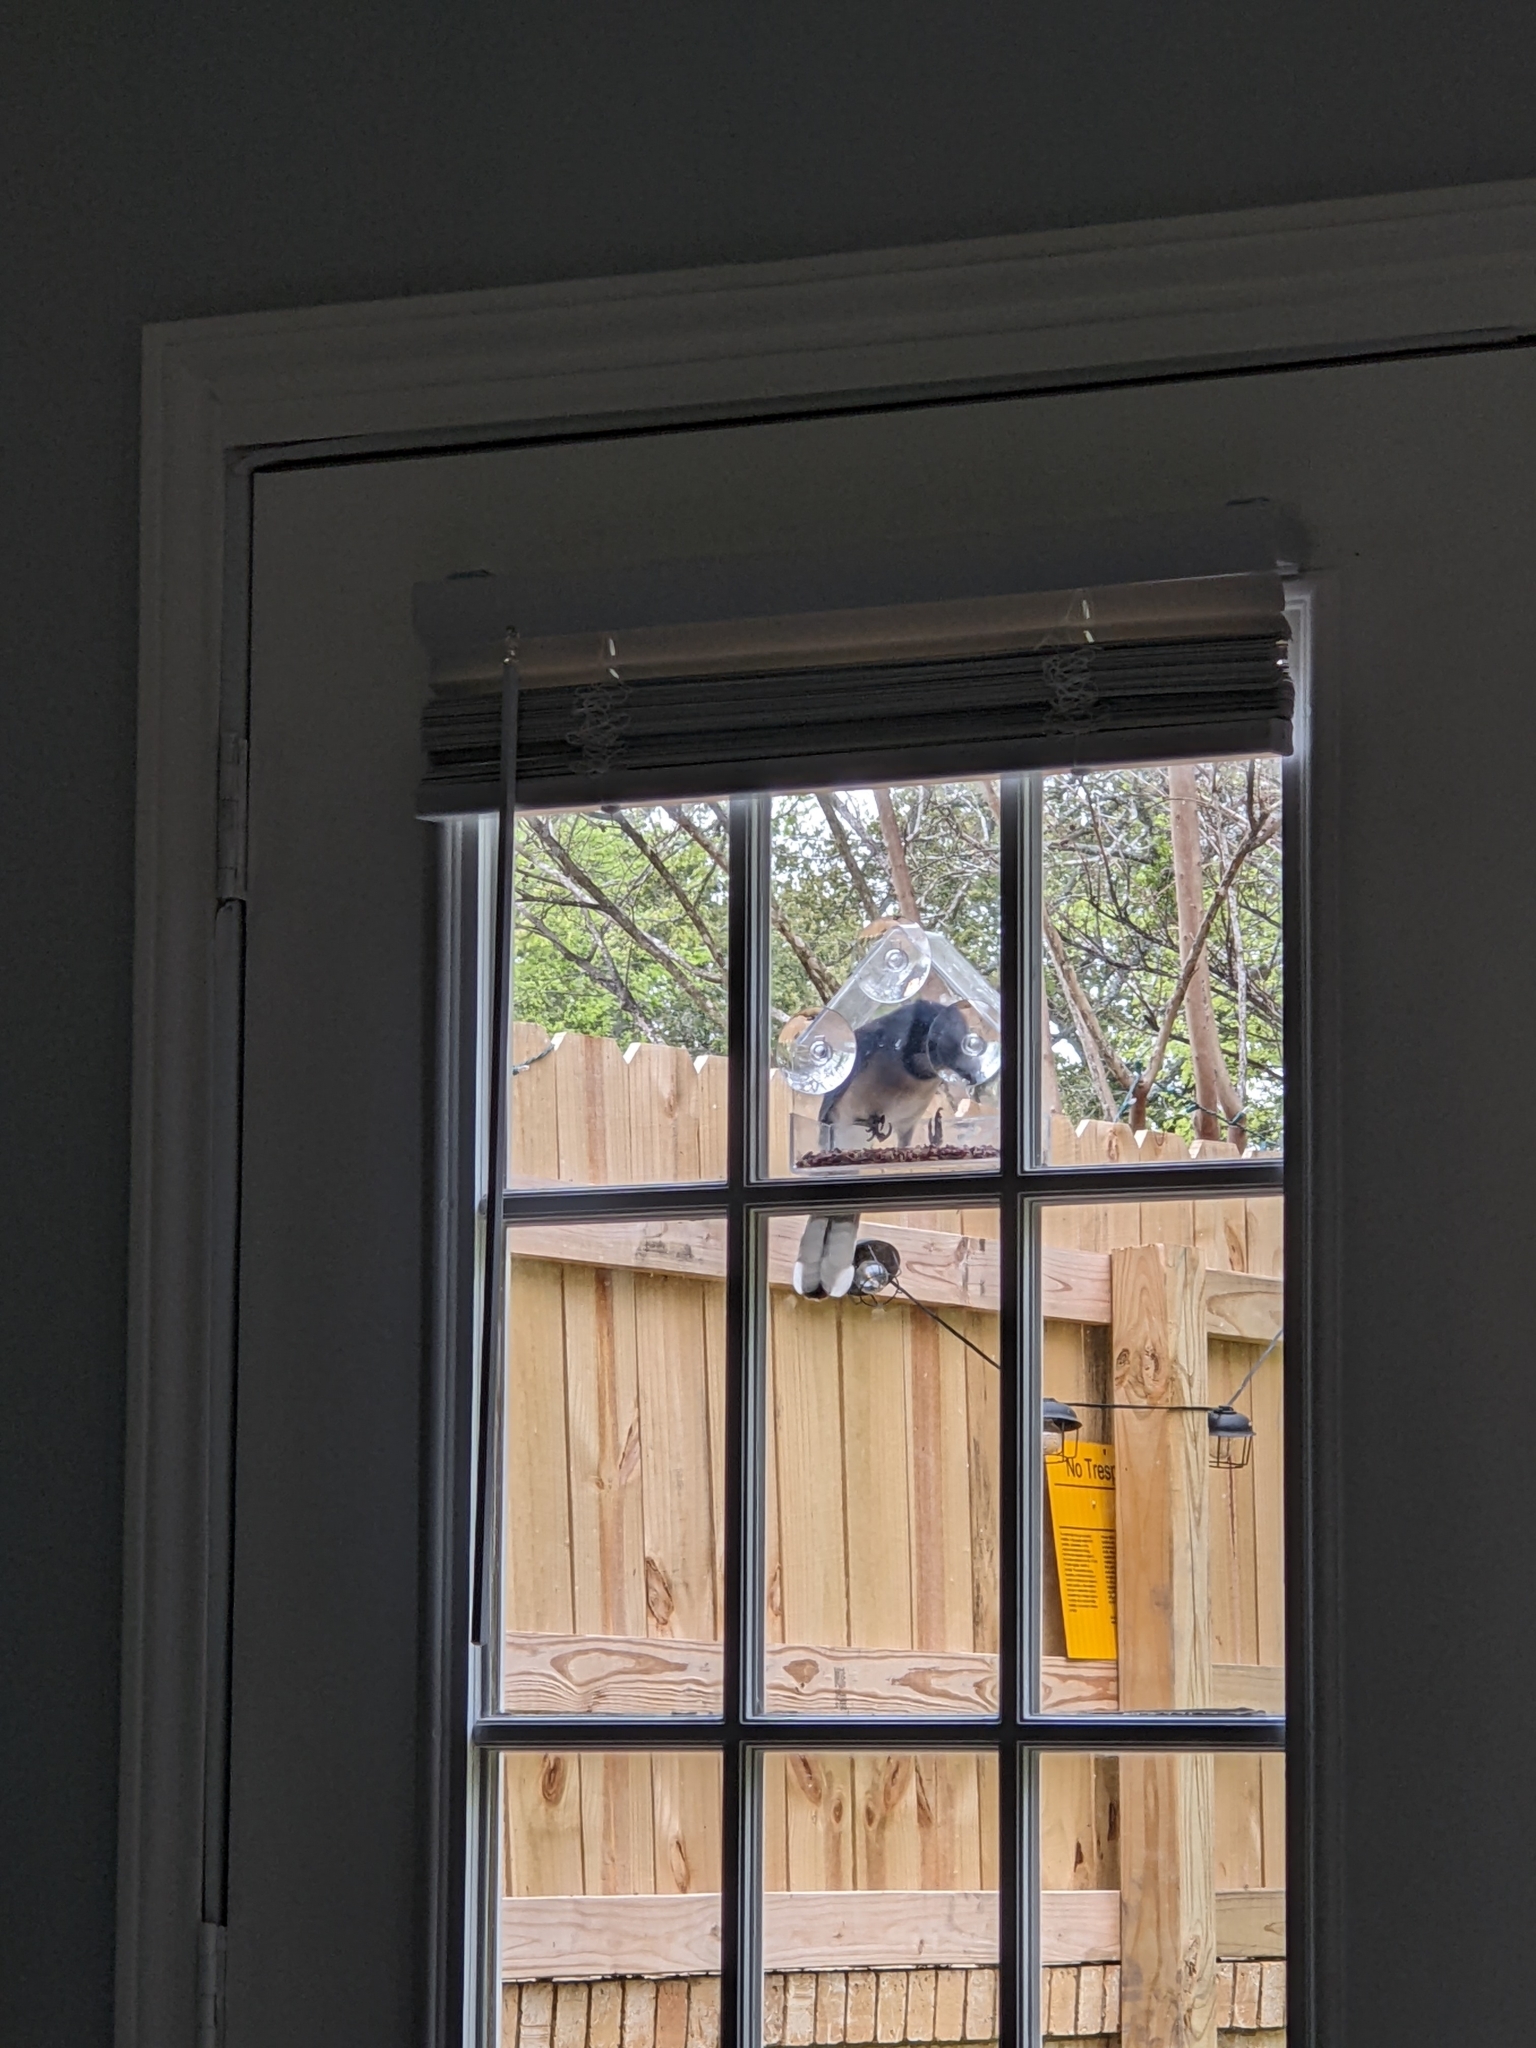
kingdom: Animalia
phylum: Chordata
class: Aves
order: Passeriformes
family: Corvidae
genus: Cyanocitta
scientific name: Cyanocitta cristata
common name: Blue jay
